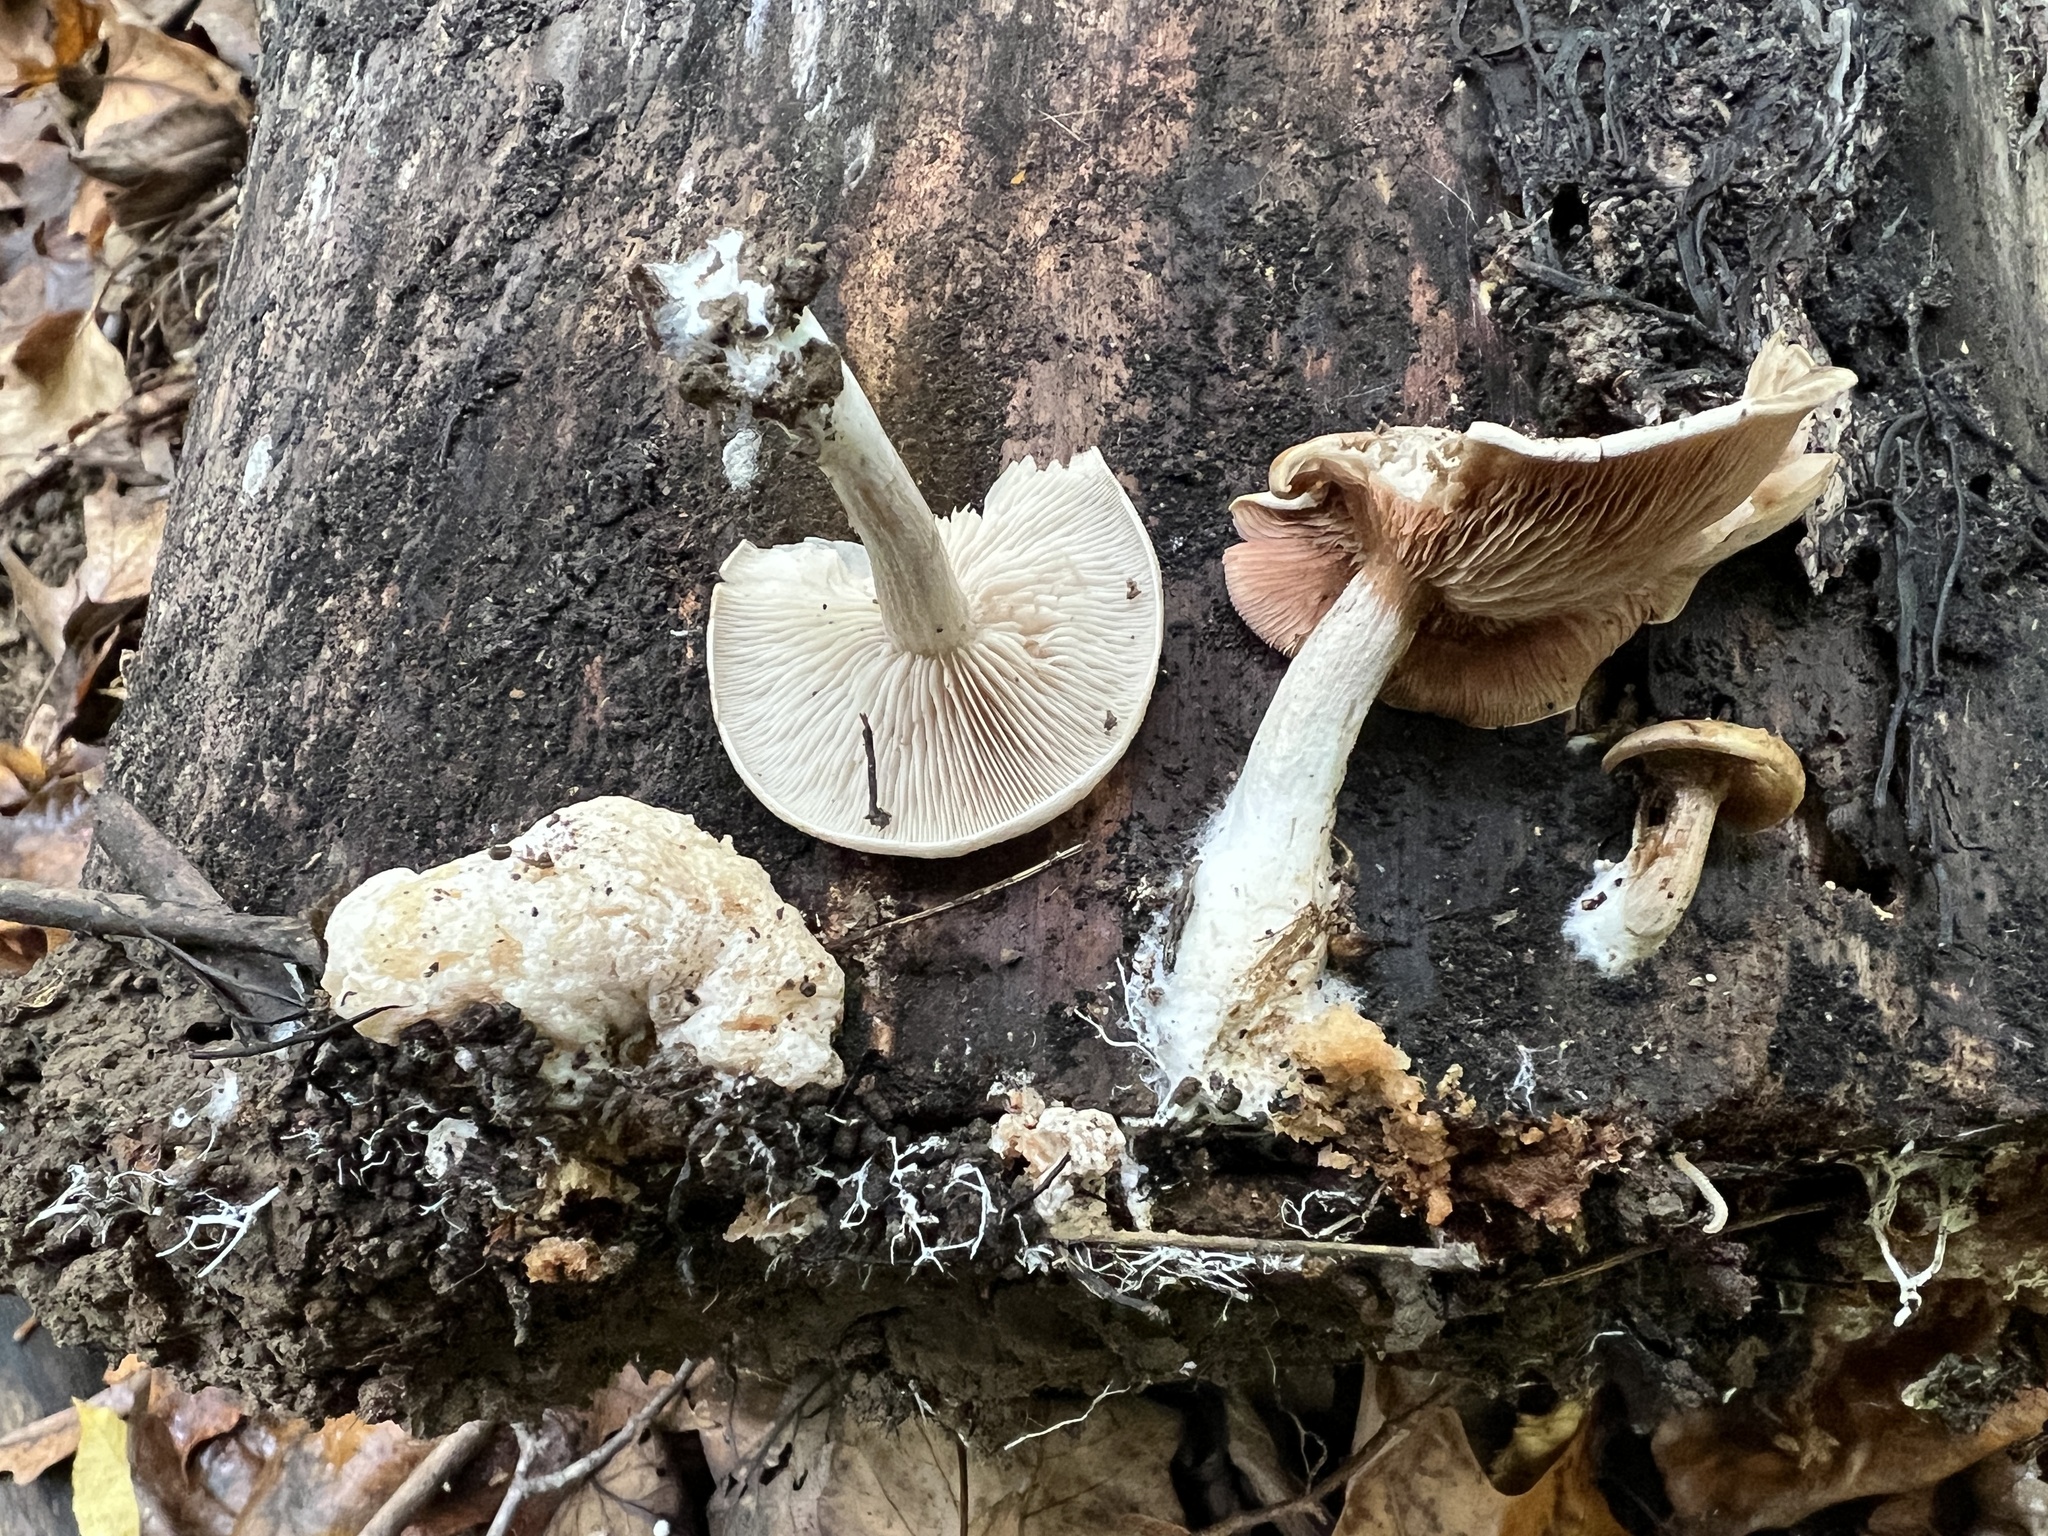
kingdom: Fungi
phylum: Basidiomycota
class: Agaricomycetes
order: Agaricales
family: Entolomataceae
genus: Entoloma
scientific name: Entoloma abortivum
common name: Aborted entoloma
